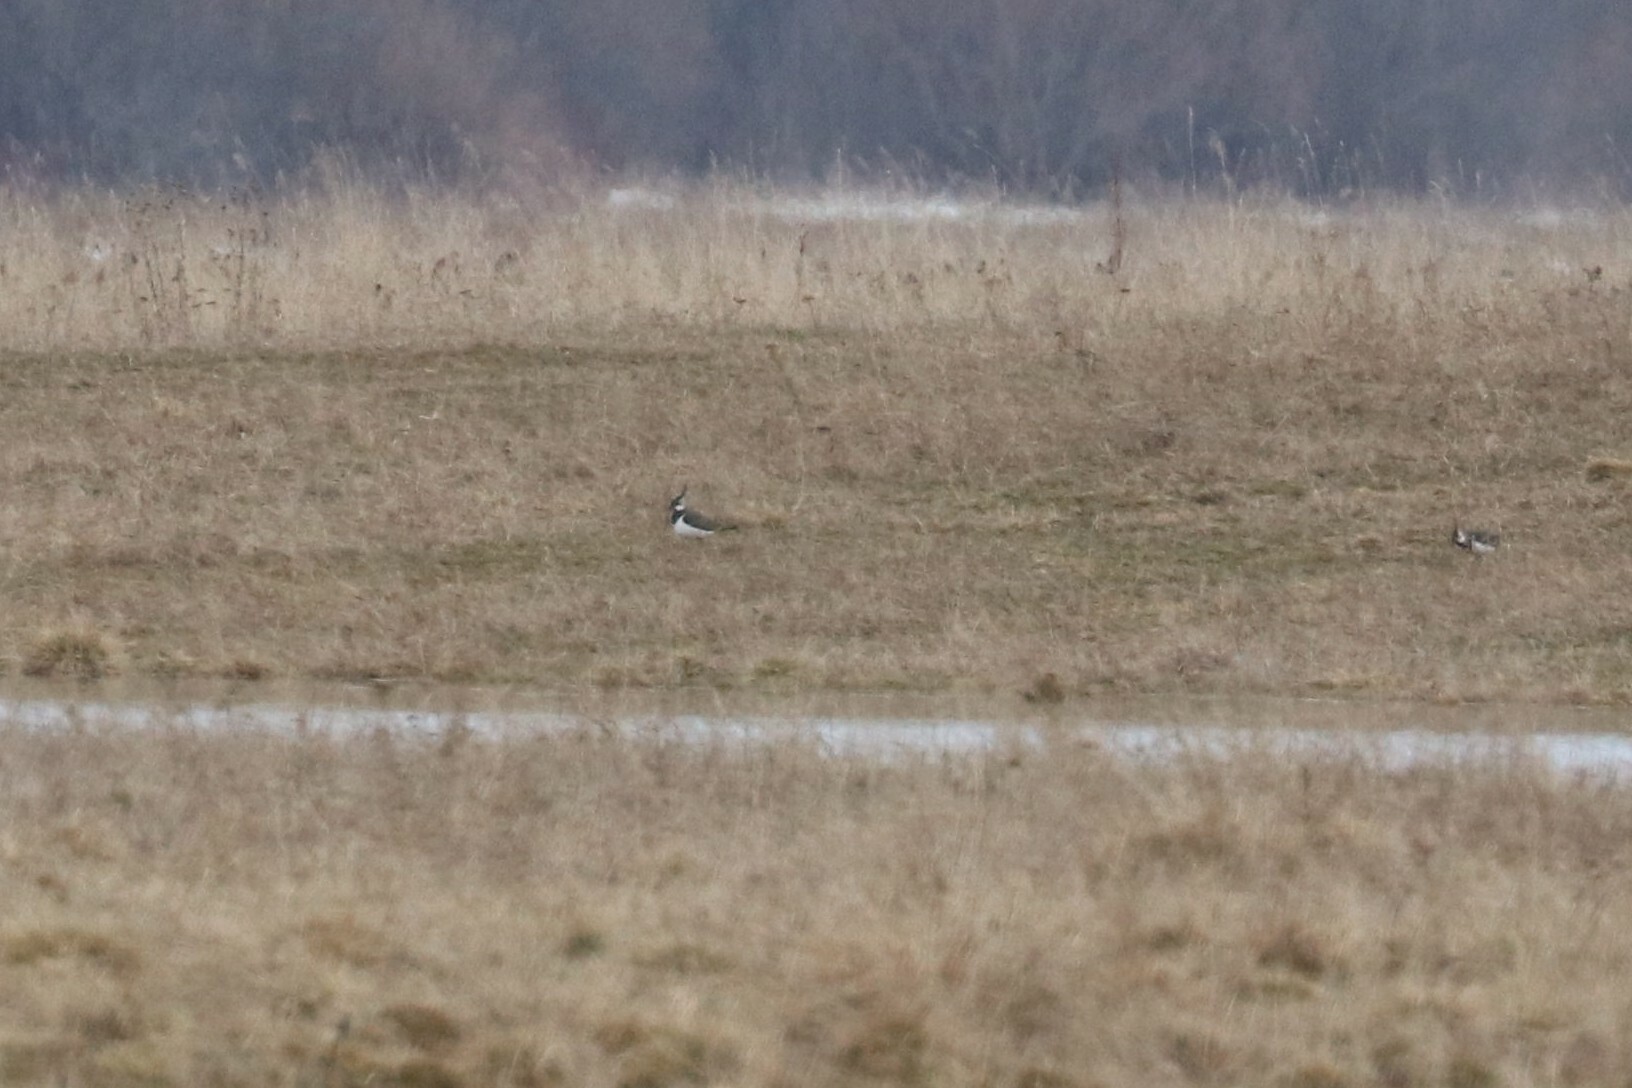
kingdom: Animalia
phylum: Chordata
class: Aves
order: Charadriiformes
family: Charadriidae
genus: Vanellus
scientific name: Vanellus vanellus
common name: Northern lapwing
